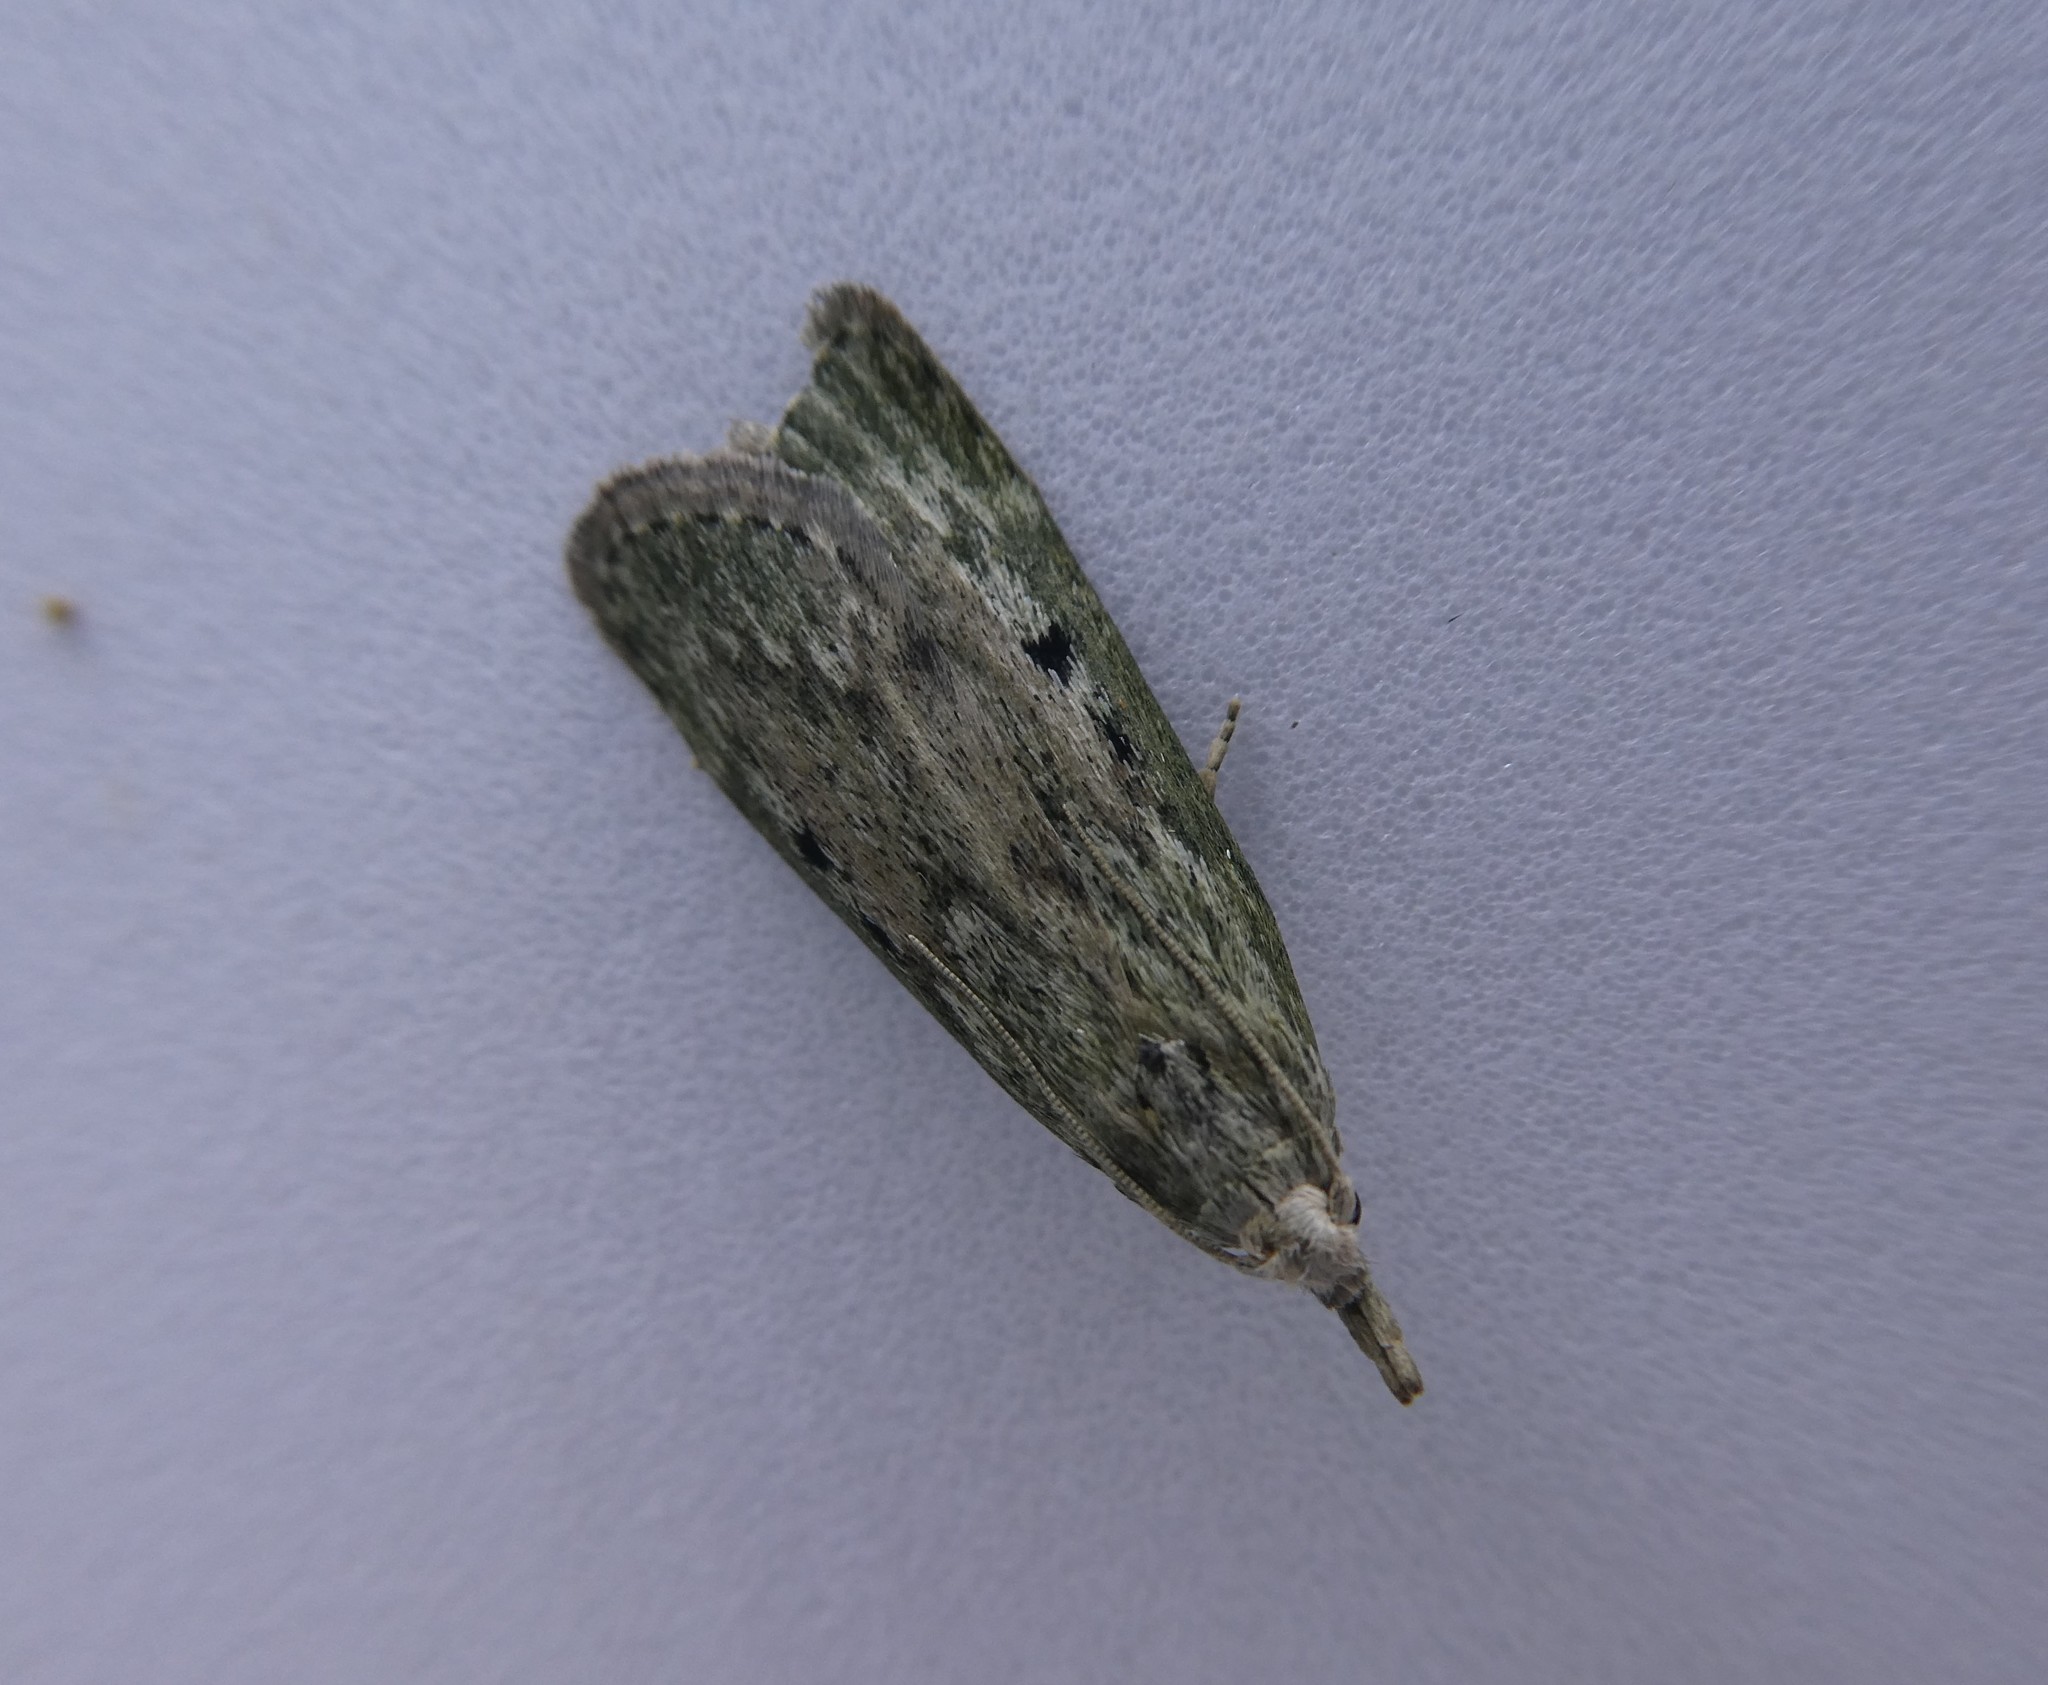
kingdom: Animalia
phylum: Arthropoda
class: Insecta
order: Lepidoptera
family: Pyralidae
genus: Aphomia
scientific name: Aphomia sociella
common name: Bee moth
